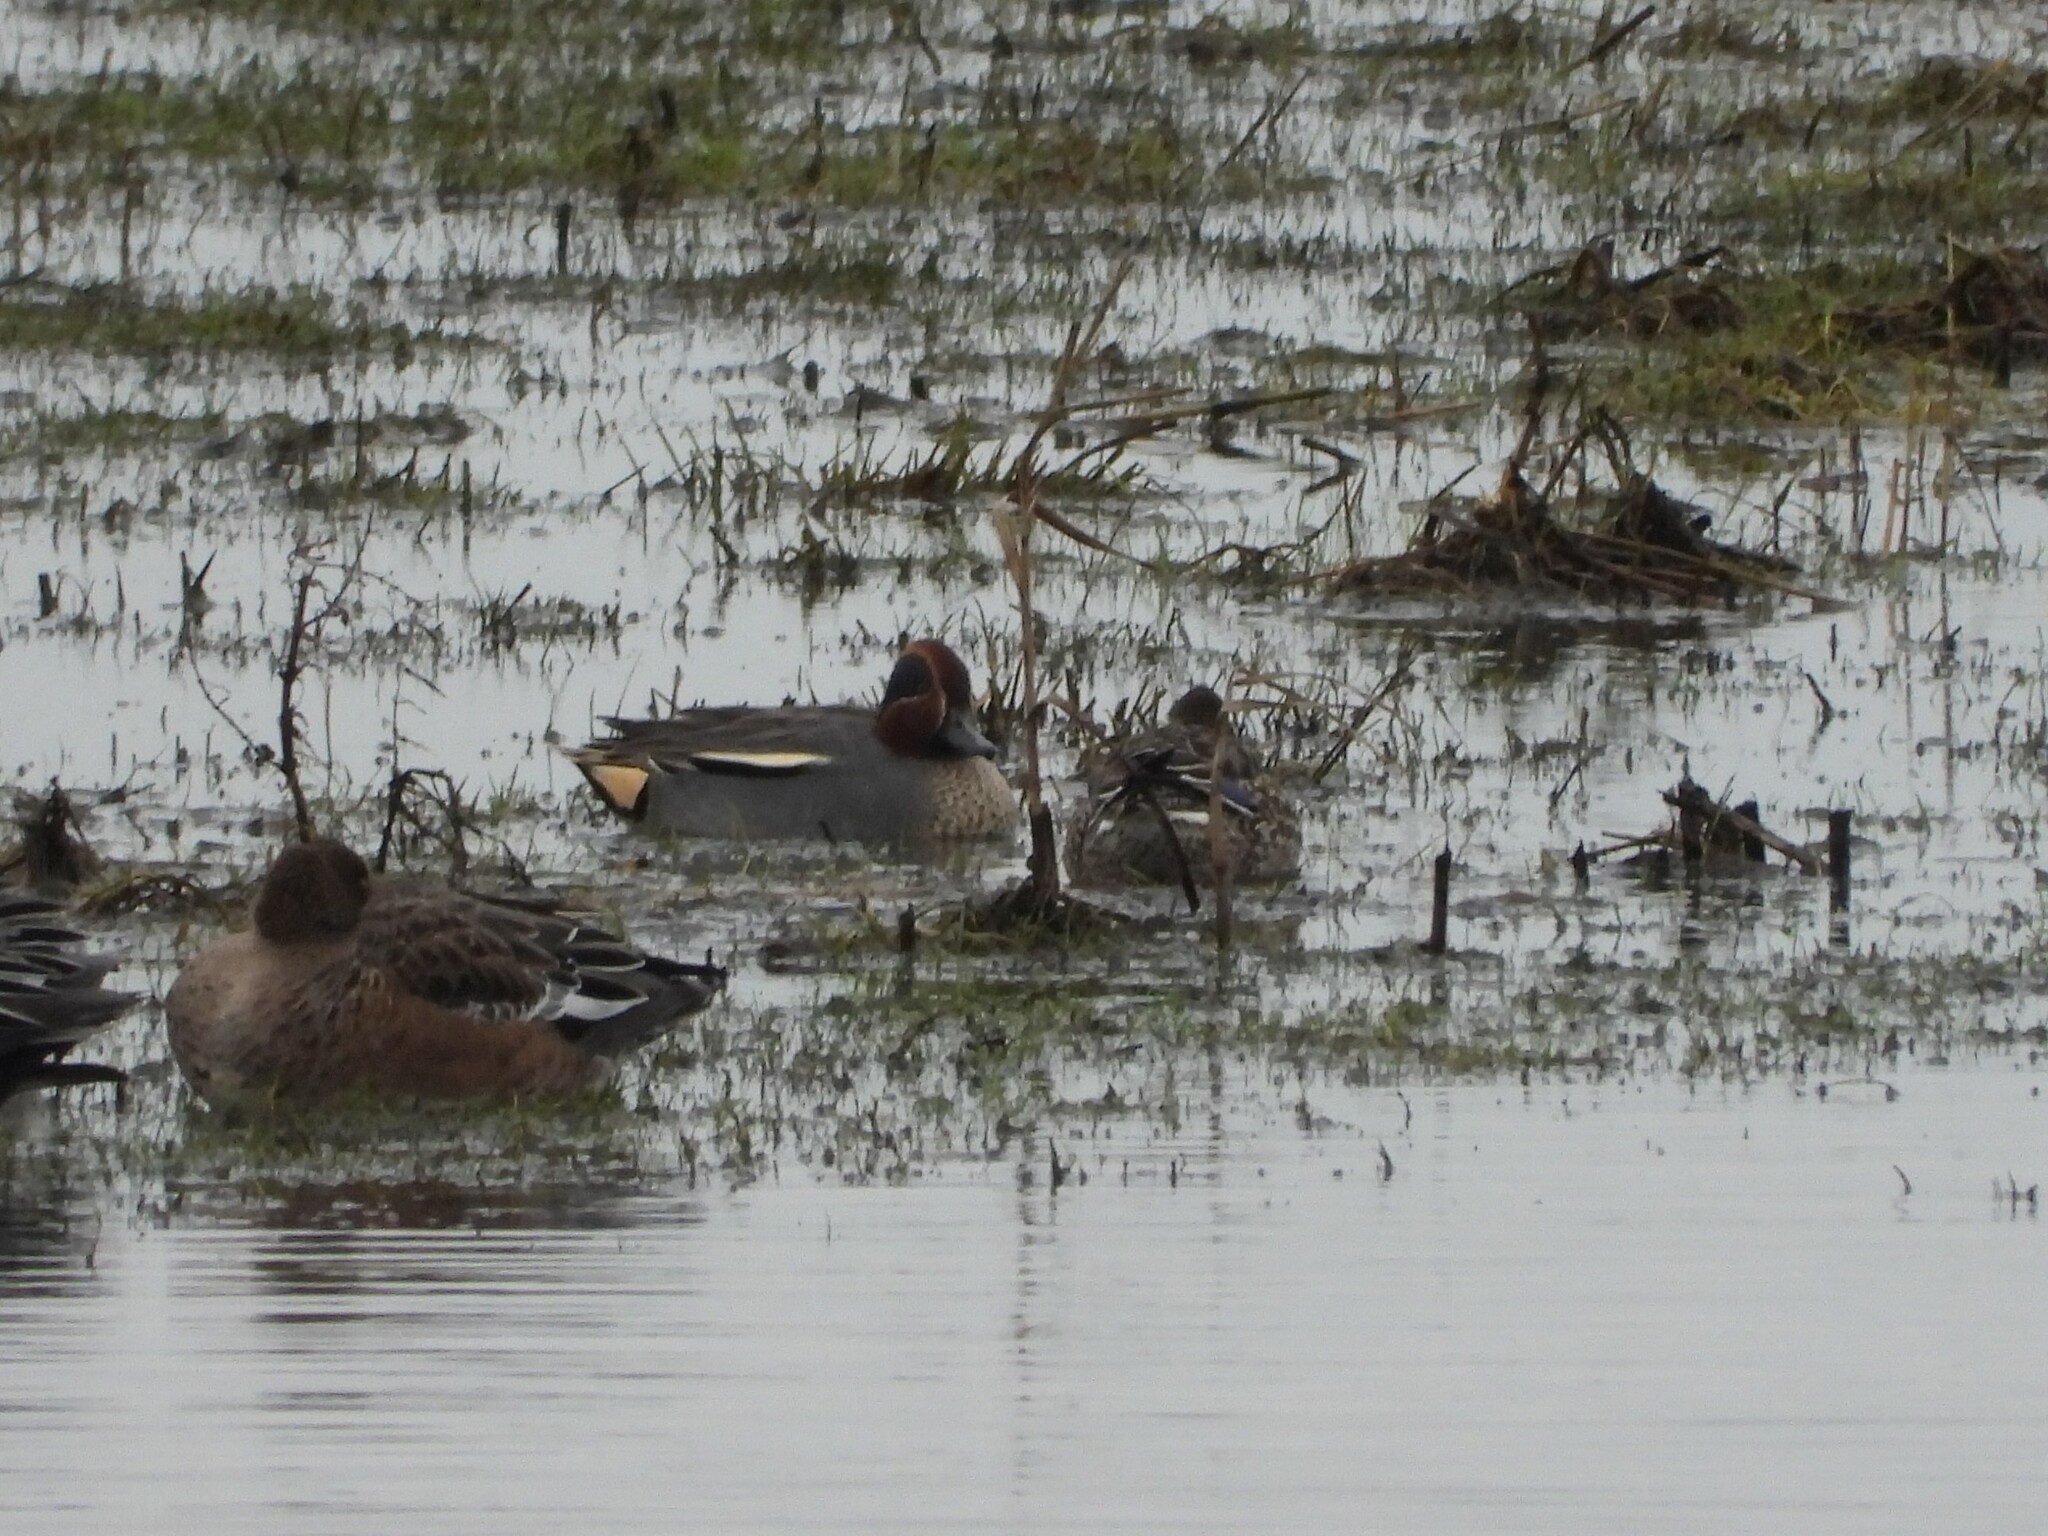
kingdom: Animalia
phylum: Chordata
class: Aves
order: Anseriformes
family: Anatidae
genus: Anas
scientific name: Anas crecca
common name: Eurasian teal
